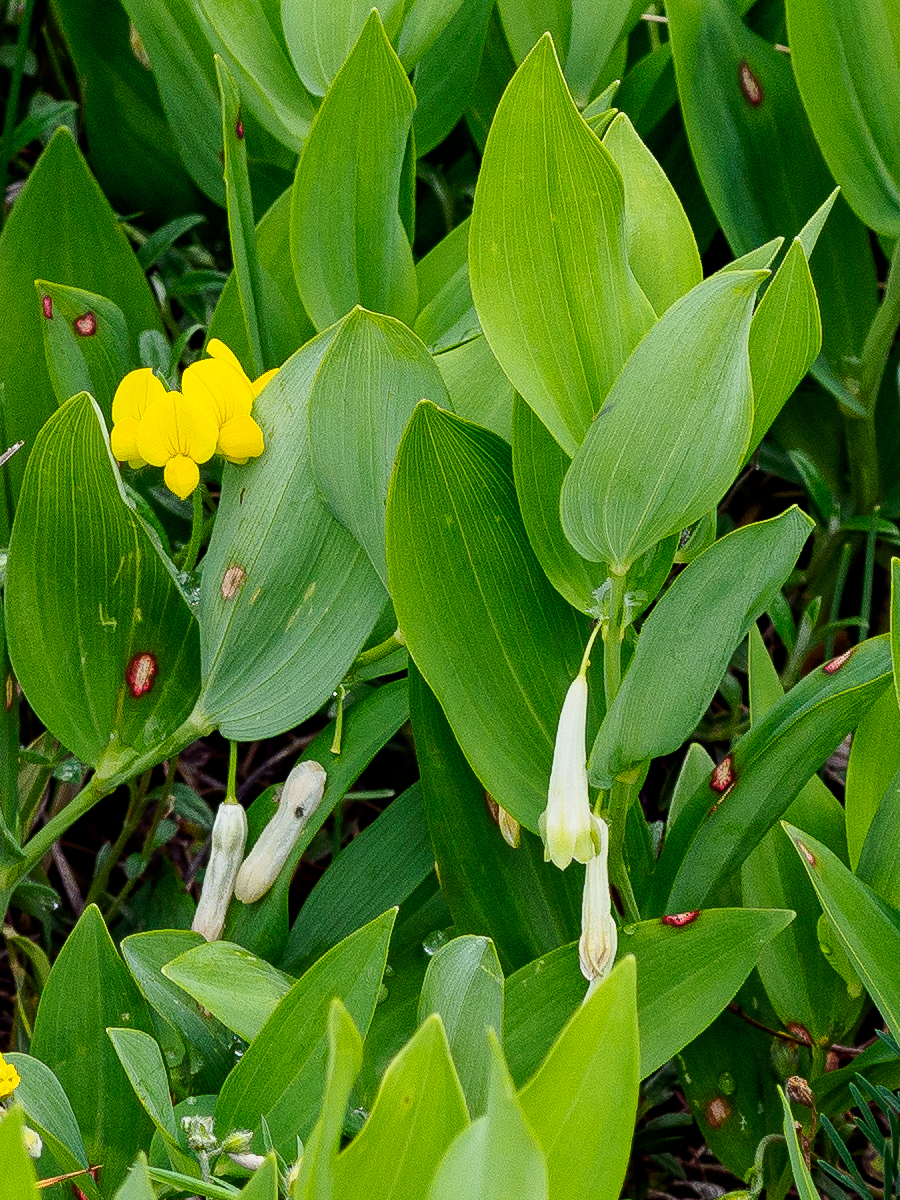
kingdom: Fungi
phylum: Ascomycota
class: Dothideomycetes
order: Botryosphaeriales
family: Phyllostictaceae
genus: Phyllosticta
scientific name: Phyllosticta convallariae
